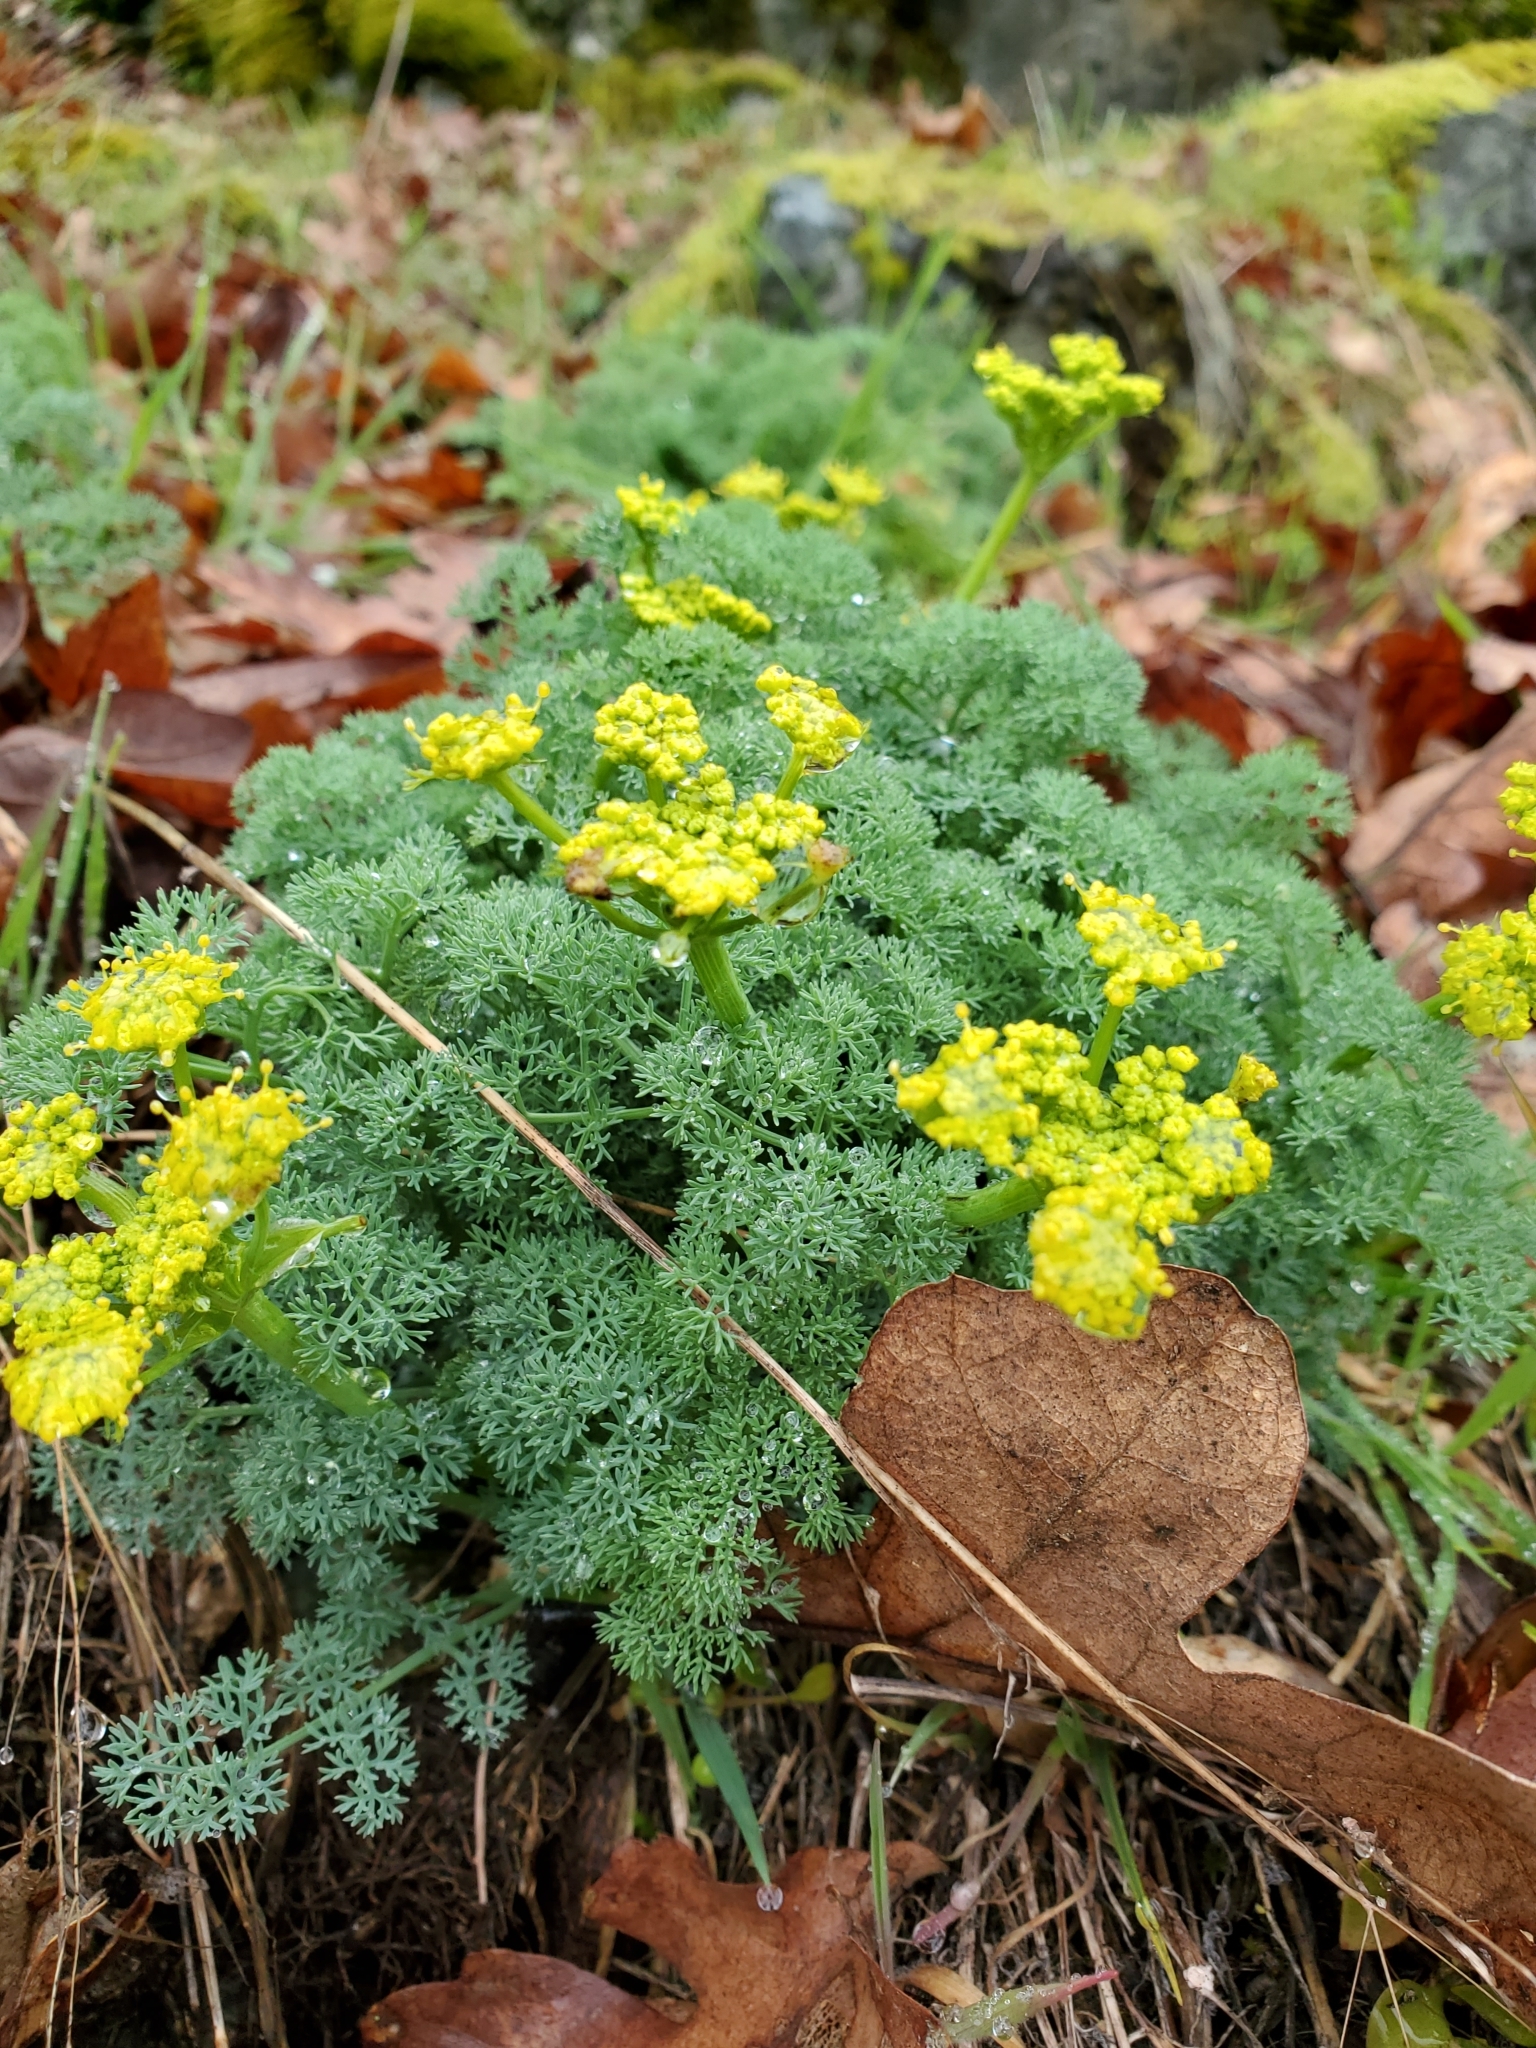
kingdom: Plantae
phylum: Tracheophyta
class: Magnoliopsida
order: Apiales
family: Apiaceae
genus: Lomatium
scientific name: Lomatium papilioniferum
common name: Butterfly lomatium
